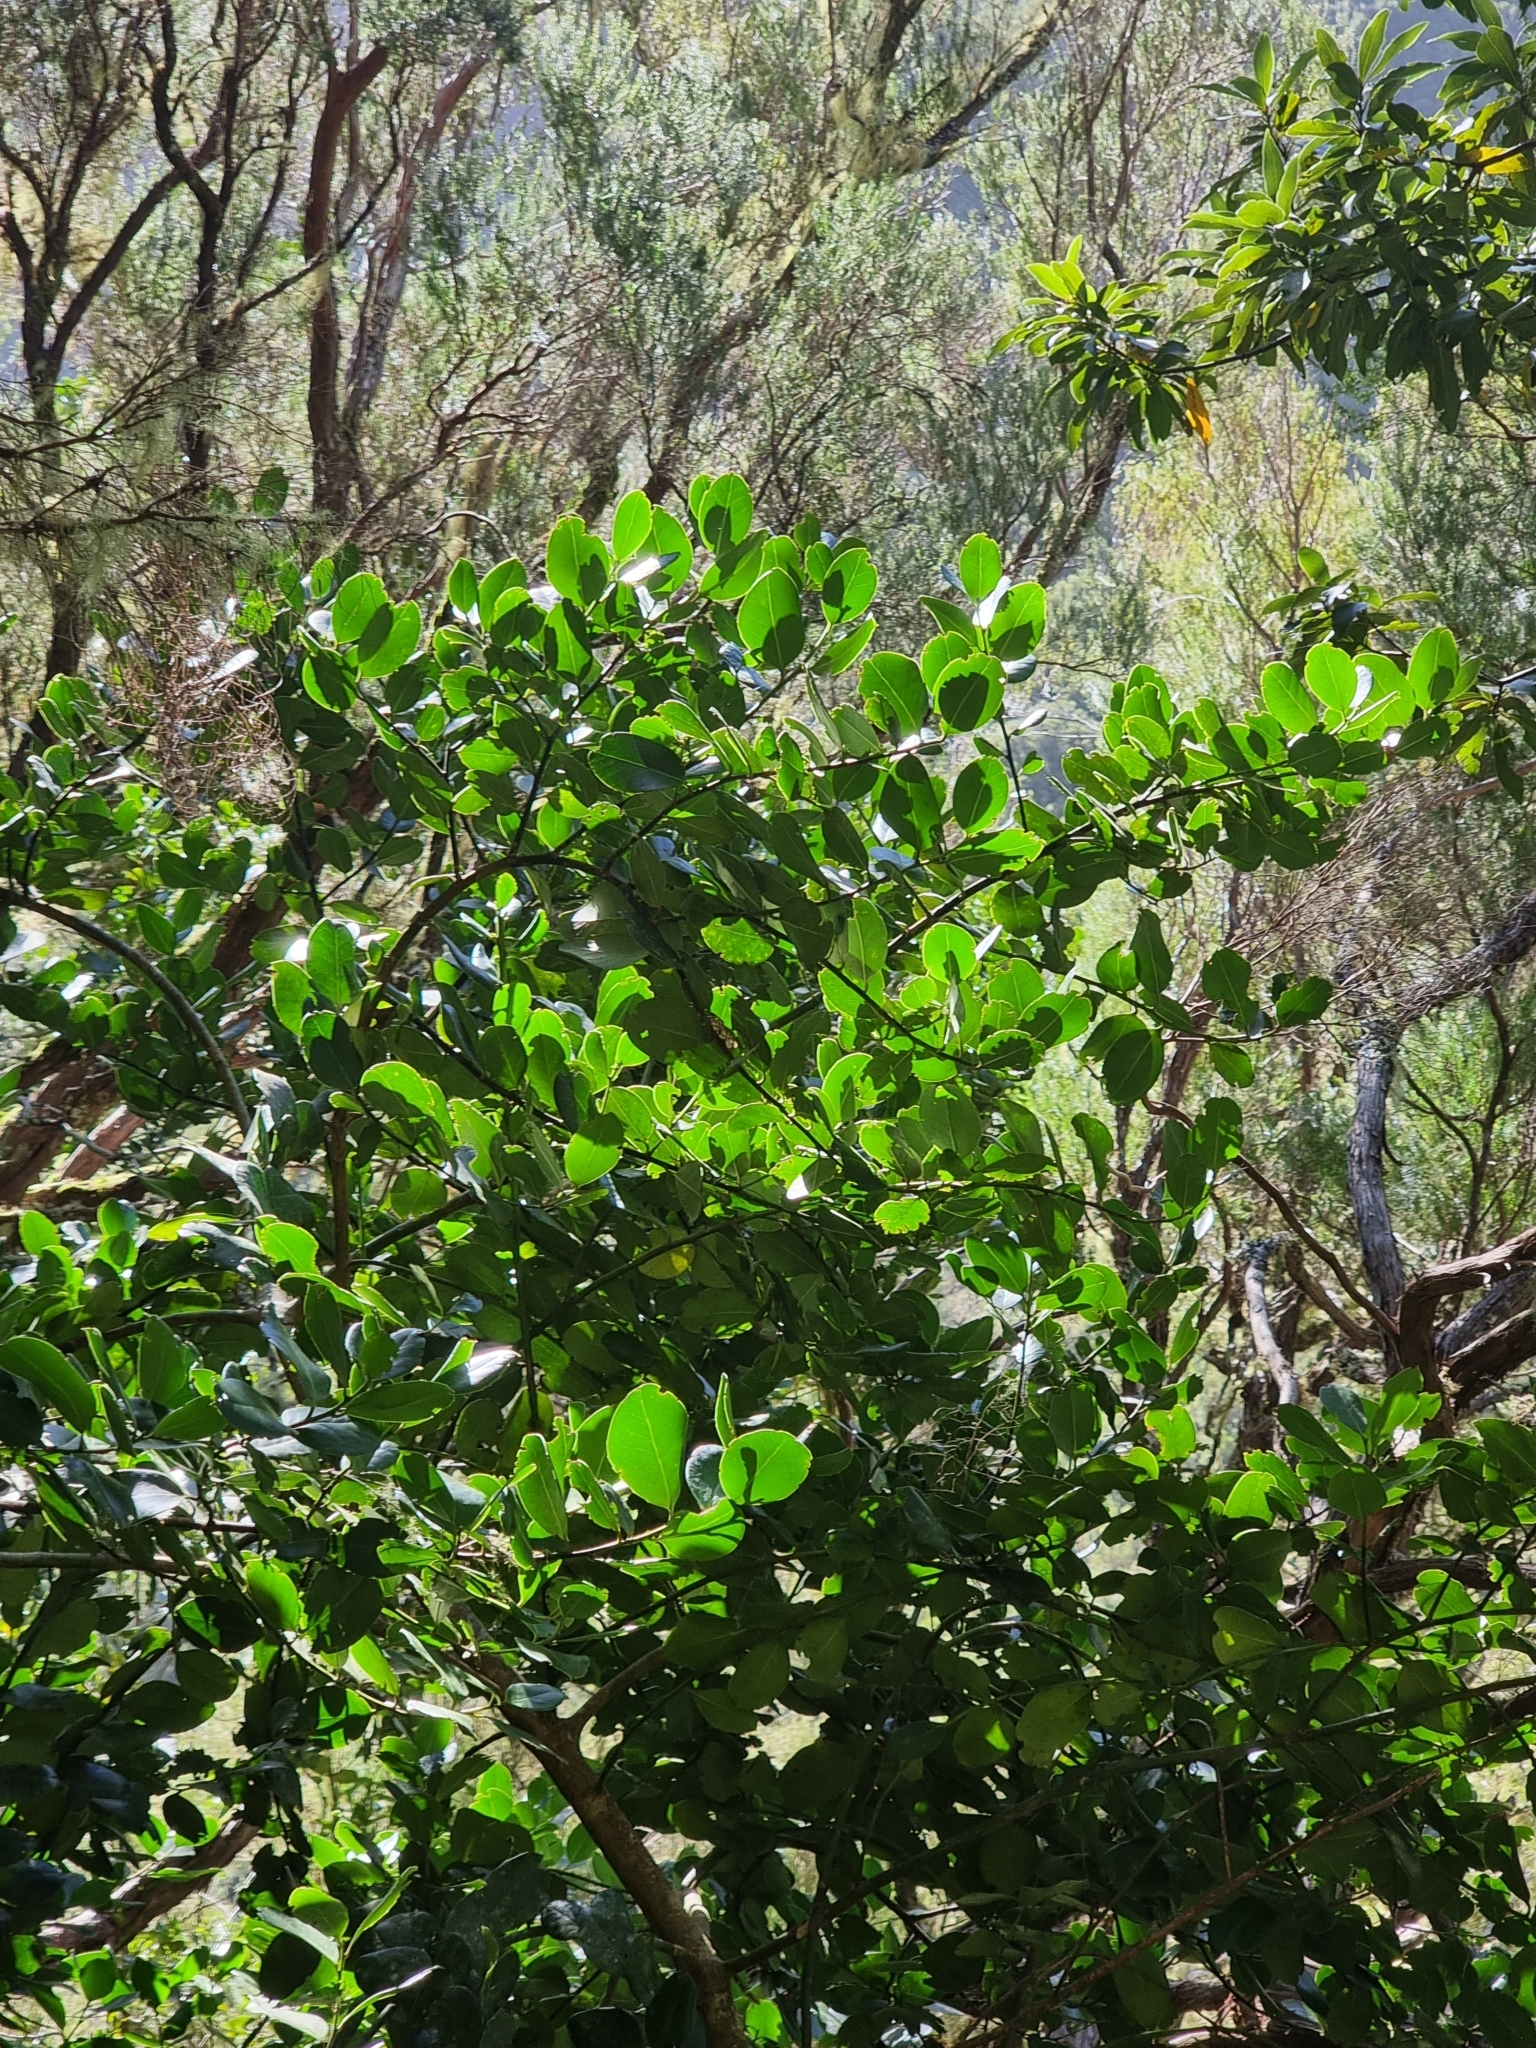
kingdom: Plantae
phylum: Tracheophyta
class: Magnoliopsida
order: Aquifoliales
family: Aquifoliaceae
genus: Ilex
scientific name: Ilex perado
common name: Madeira holly
